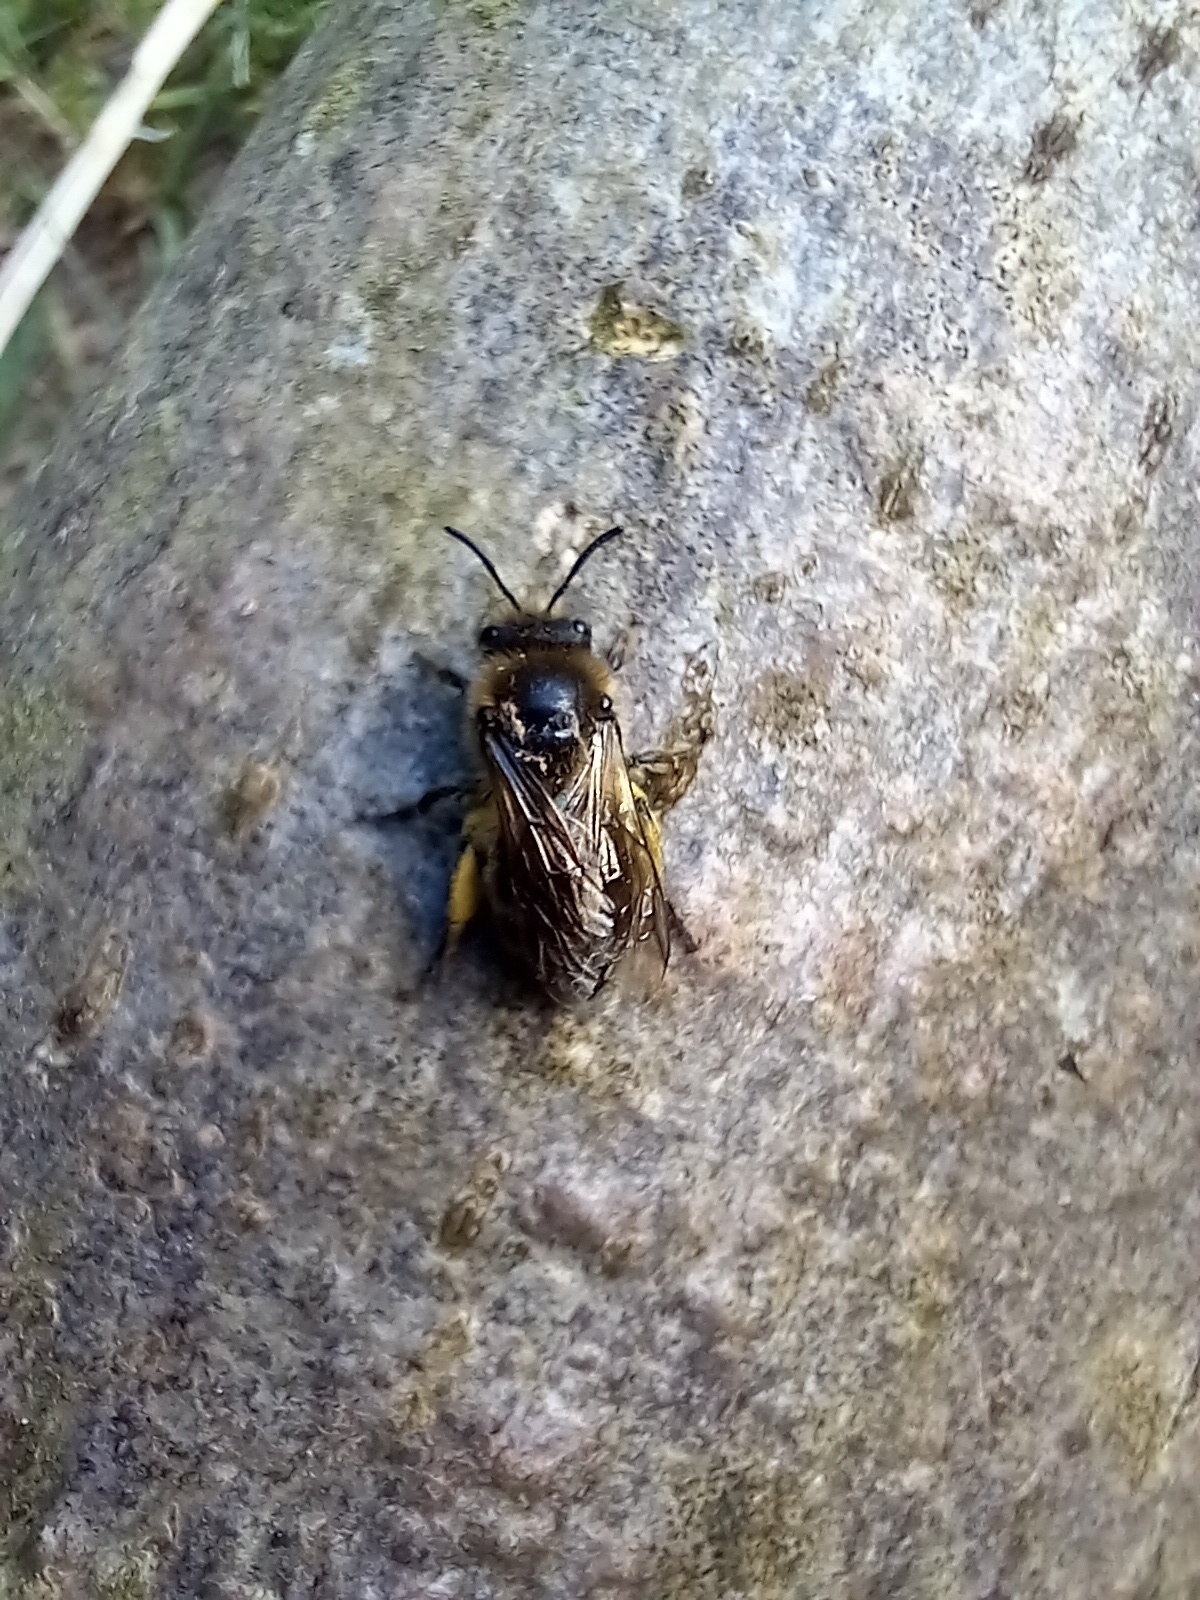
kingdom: Animalia
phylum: Arthropoda
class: Insecta
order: Hymenoptera
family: Colletidae
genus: Colletes
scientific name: Colletes cunicularius
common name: Early colletes
